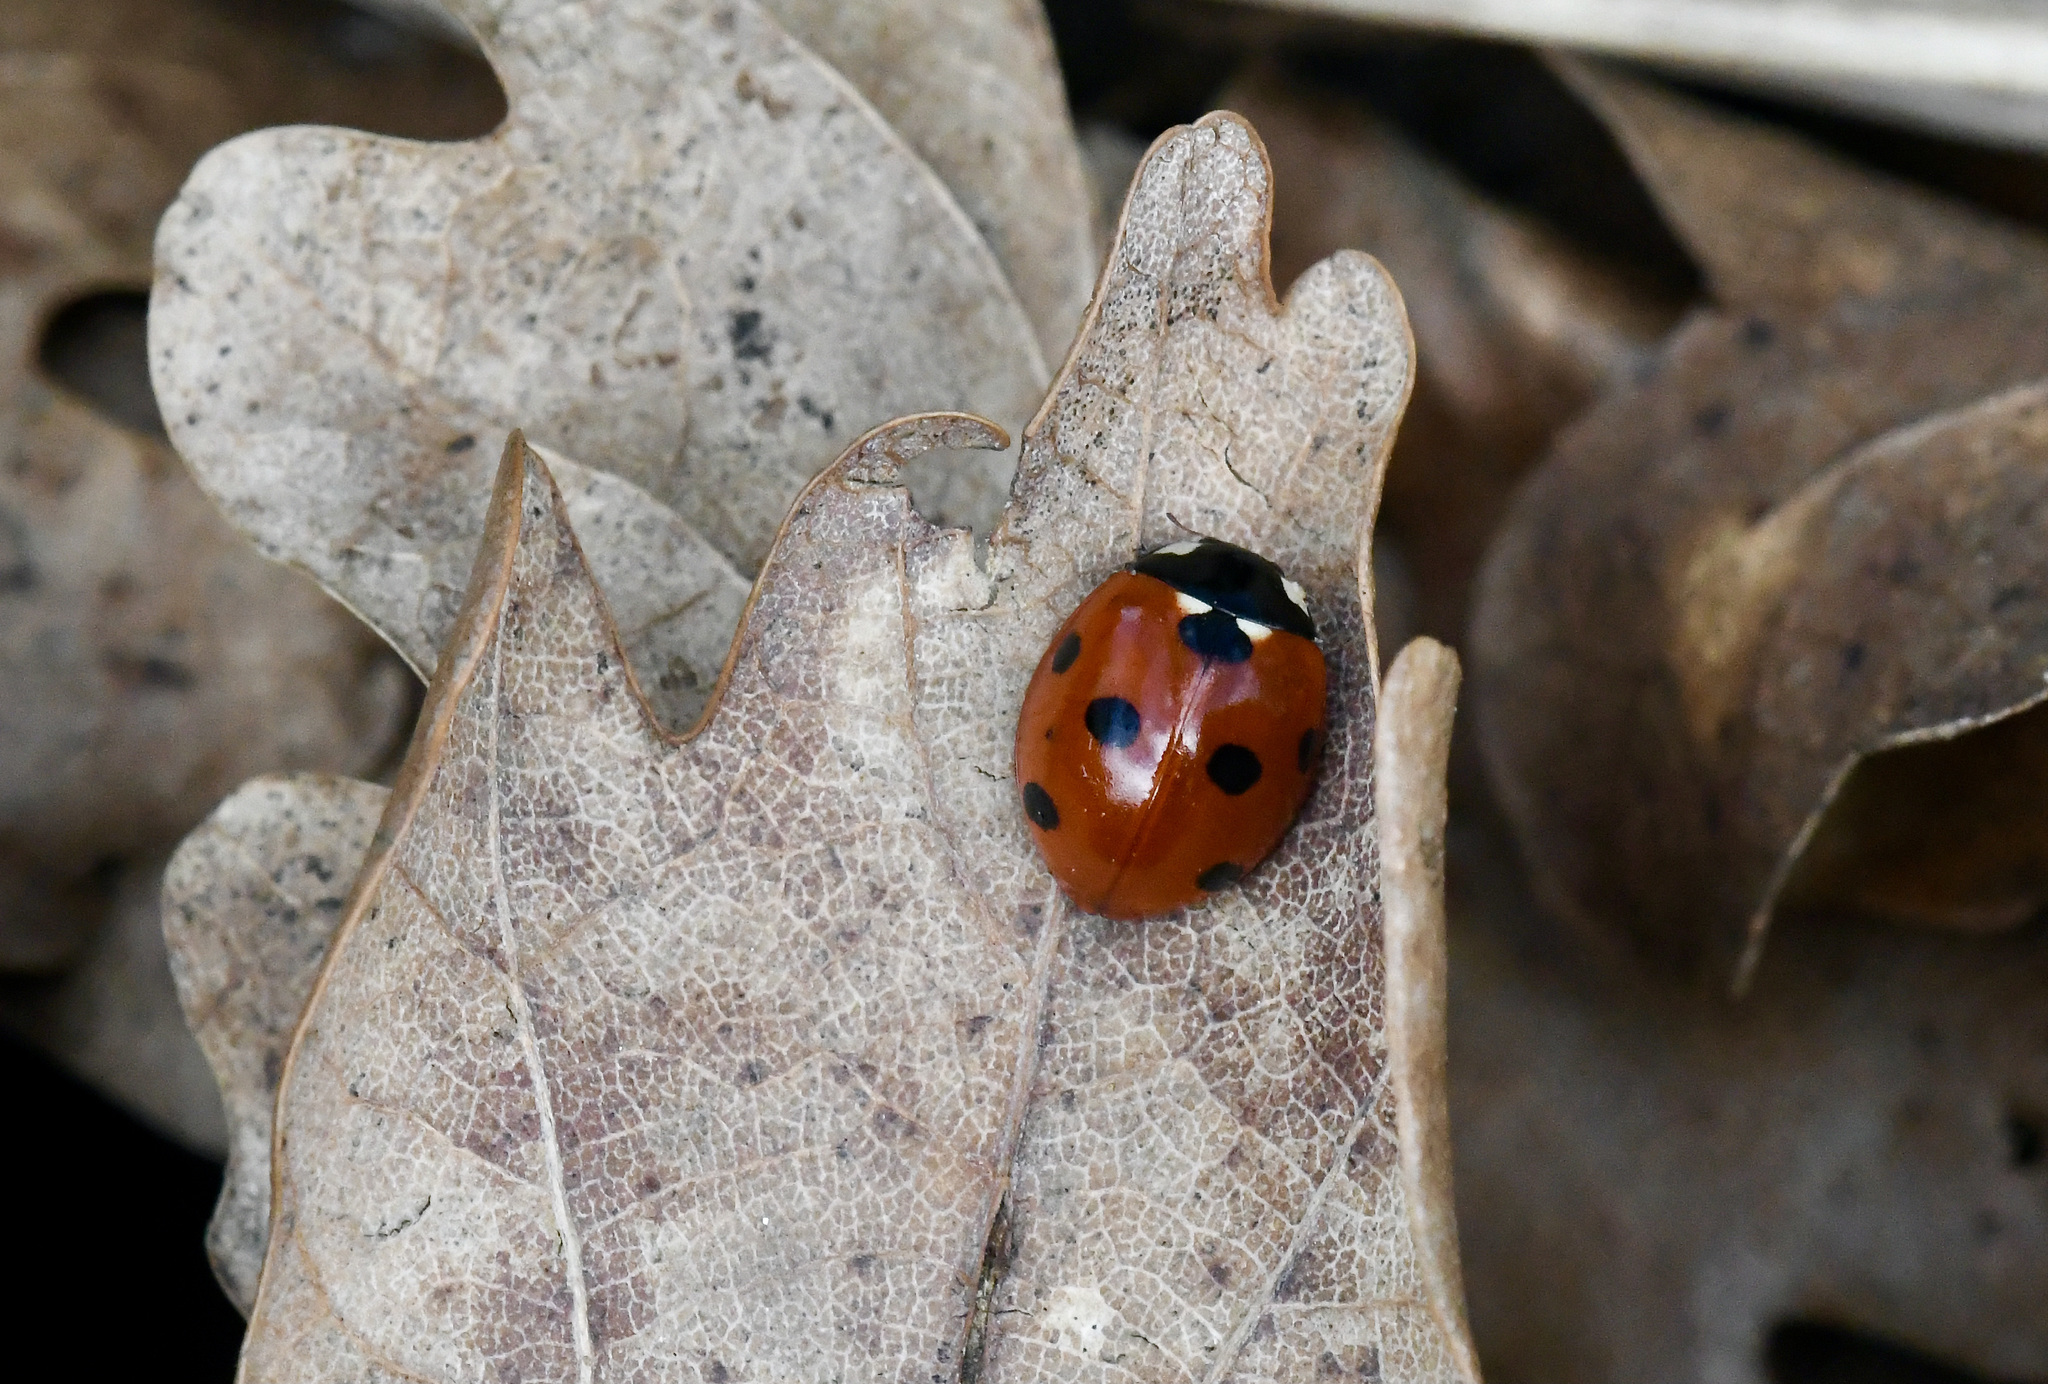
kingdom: Animalia
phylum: Arthropoda
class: Insecta
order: Coleoptera
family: Coccinellidae
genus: Coccinella
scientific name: Coccinella septempunctata
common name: Sevenspotted lady beetle
